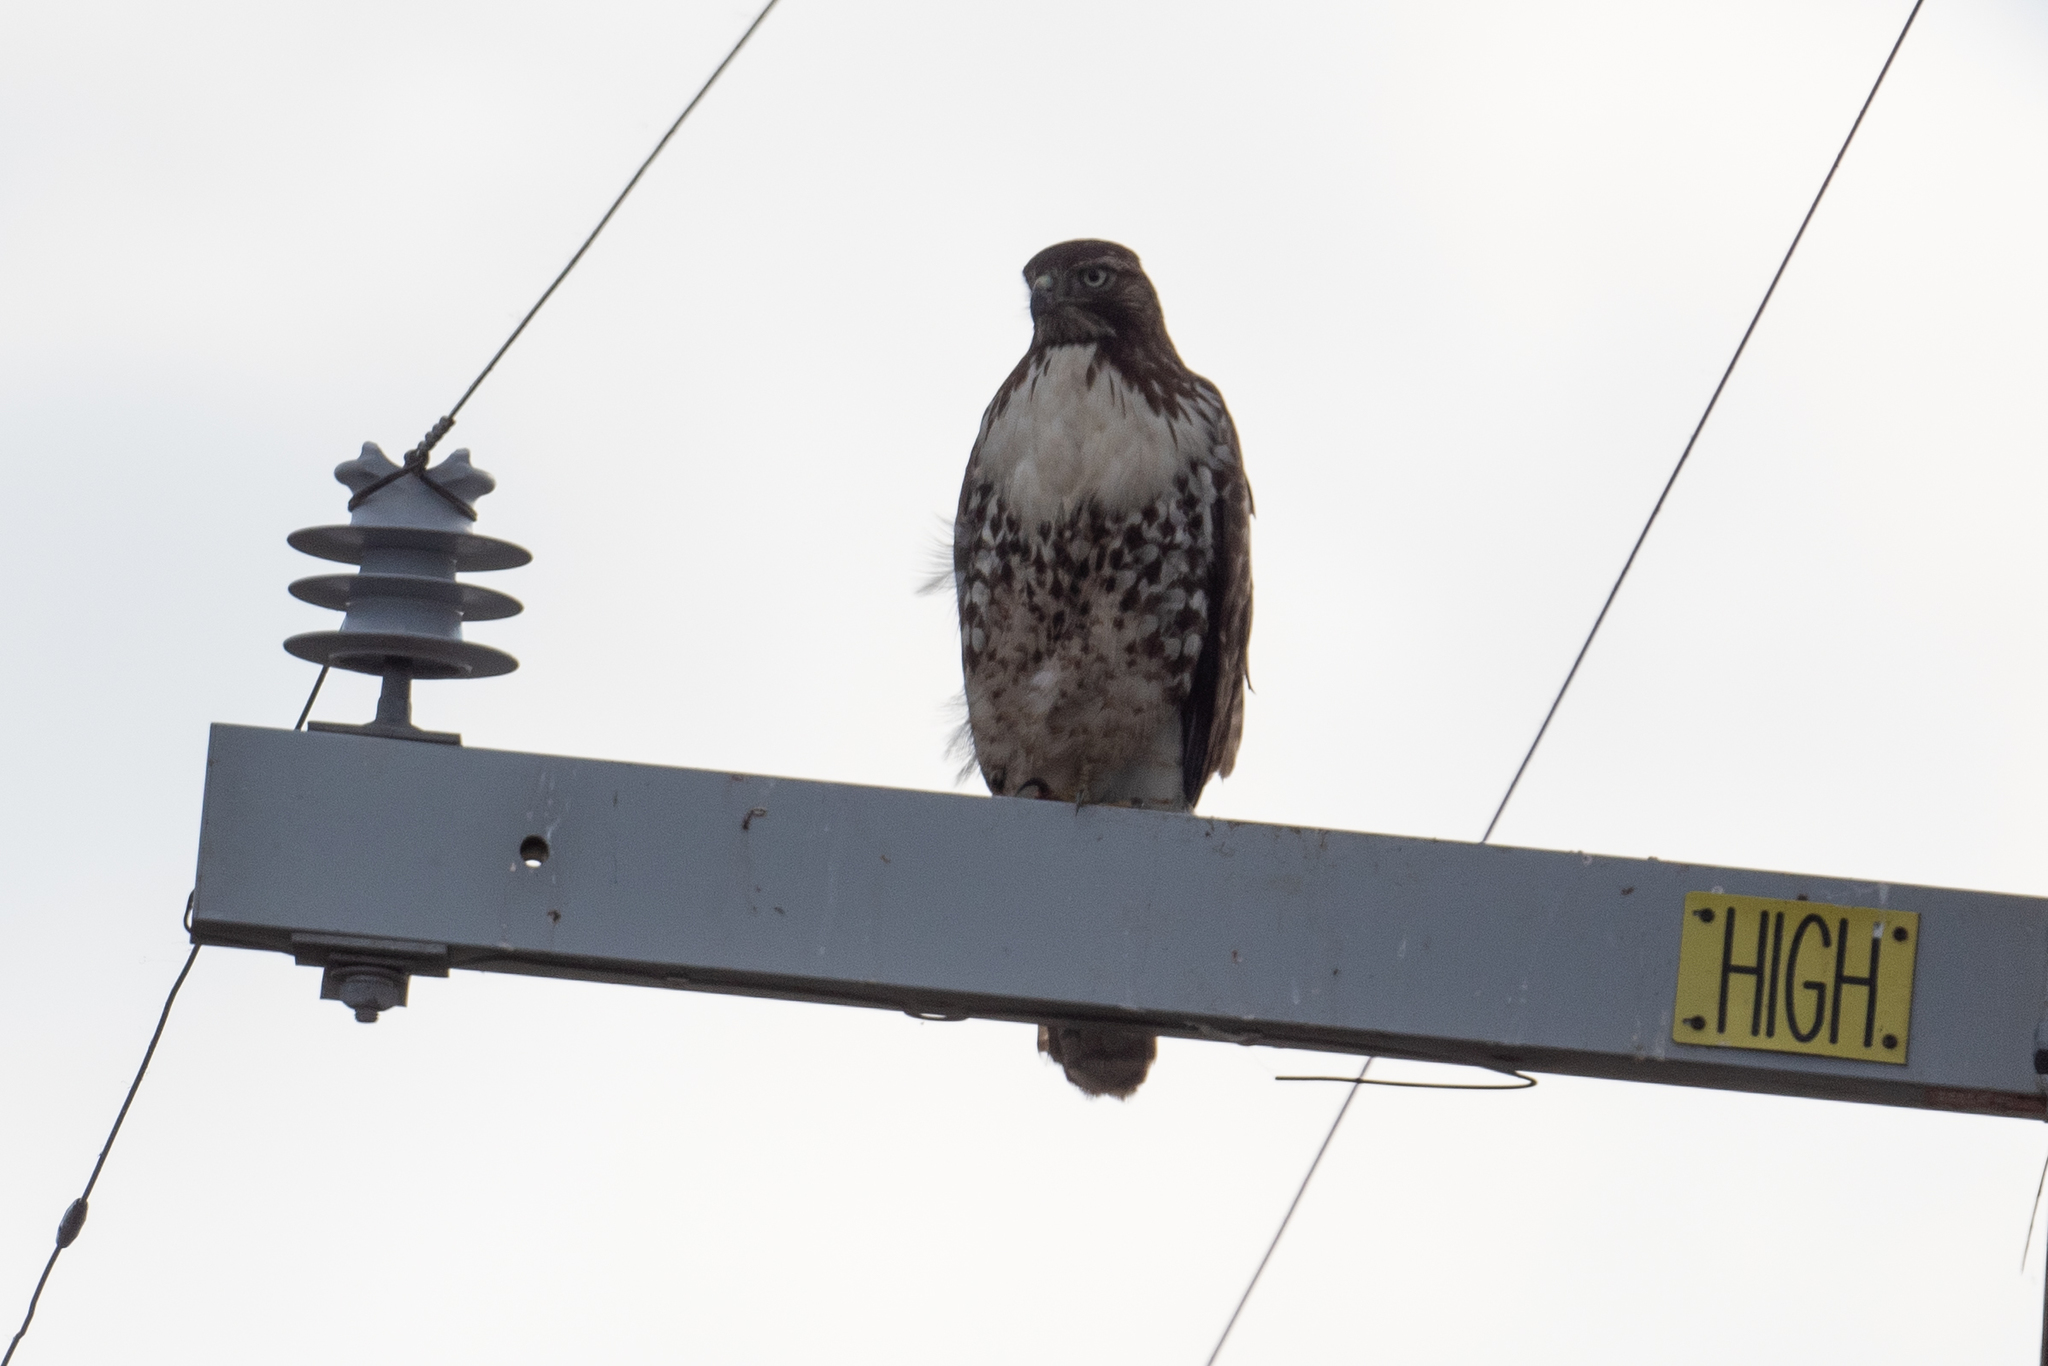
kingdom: Animalia
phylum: Chordata
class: Aves
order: Accipitriformes
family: Accipitridae
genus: Buteo
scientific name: Buteo jamaicensis
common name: Red-tailed hawk
